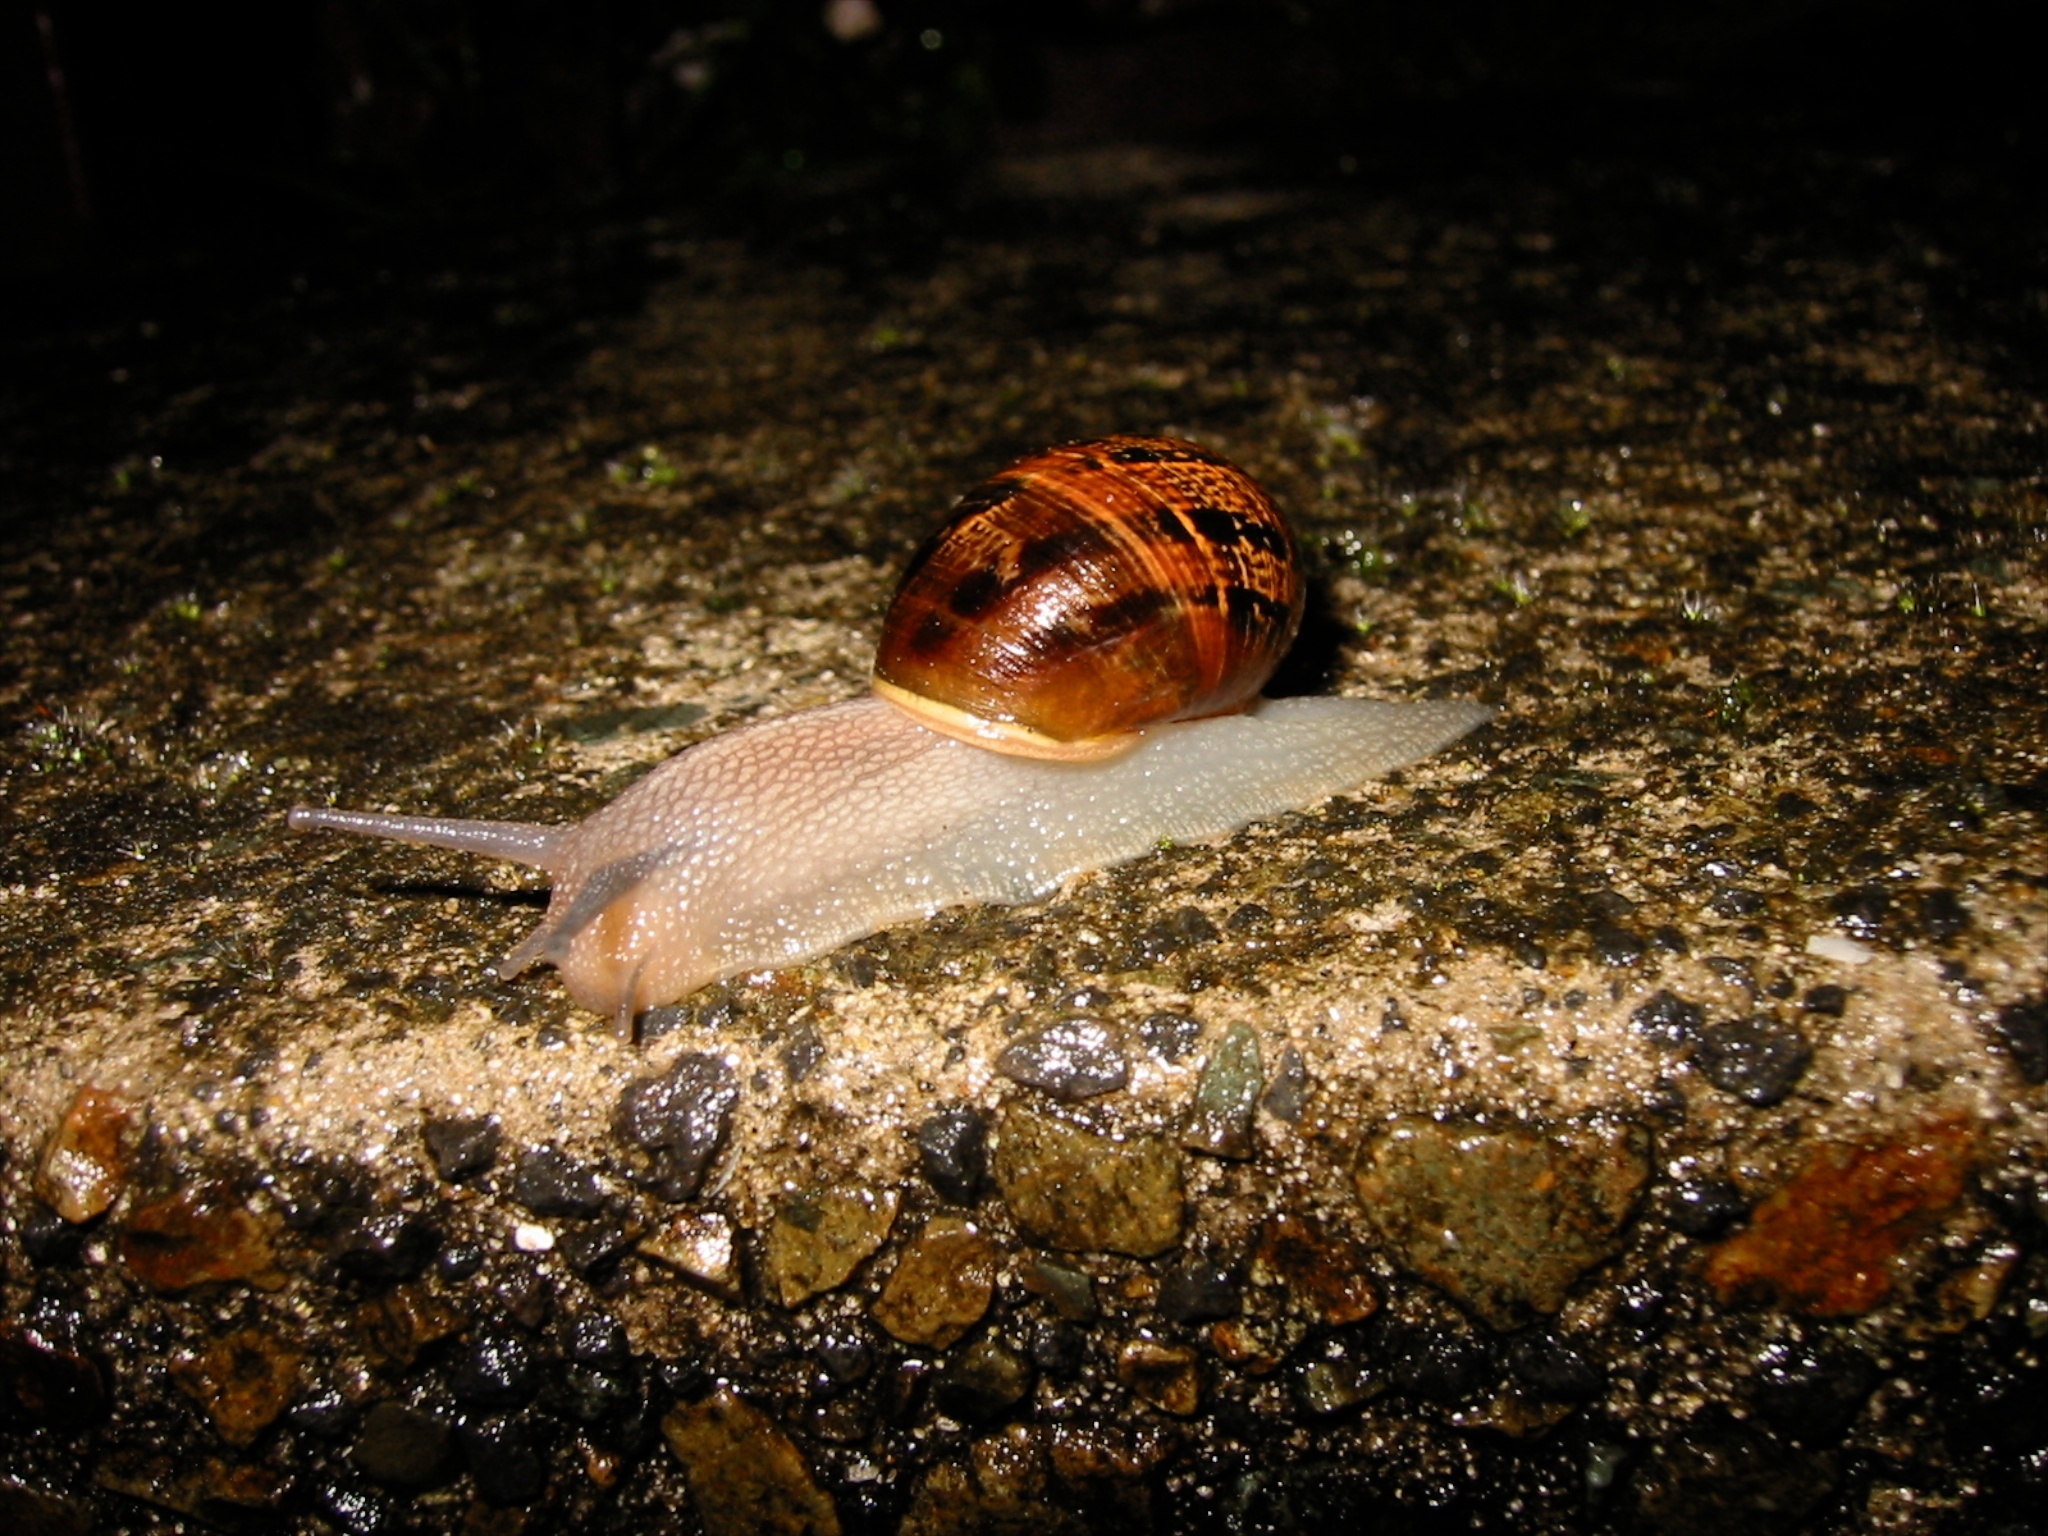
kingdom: Animalia
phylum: Mollusca
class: Gastropoda
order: Stylommatophora
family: Helicidae
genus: Cornu
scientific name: Cornu aspersum
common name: Brown garden snail
